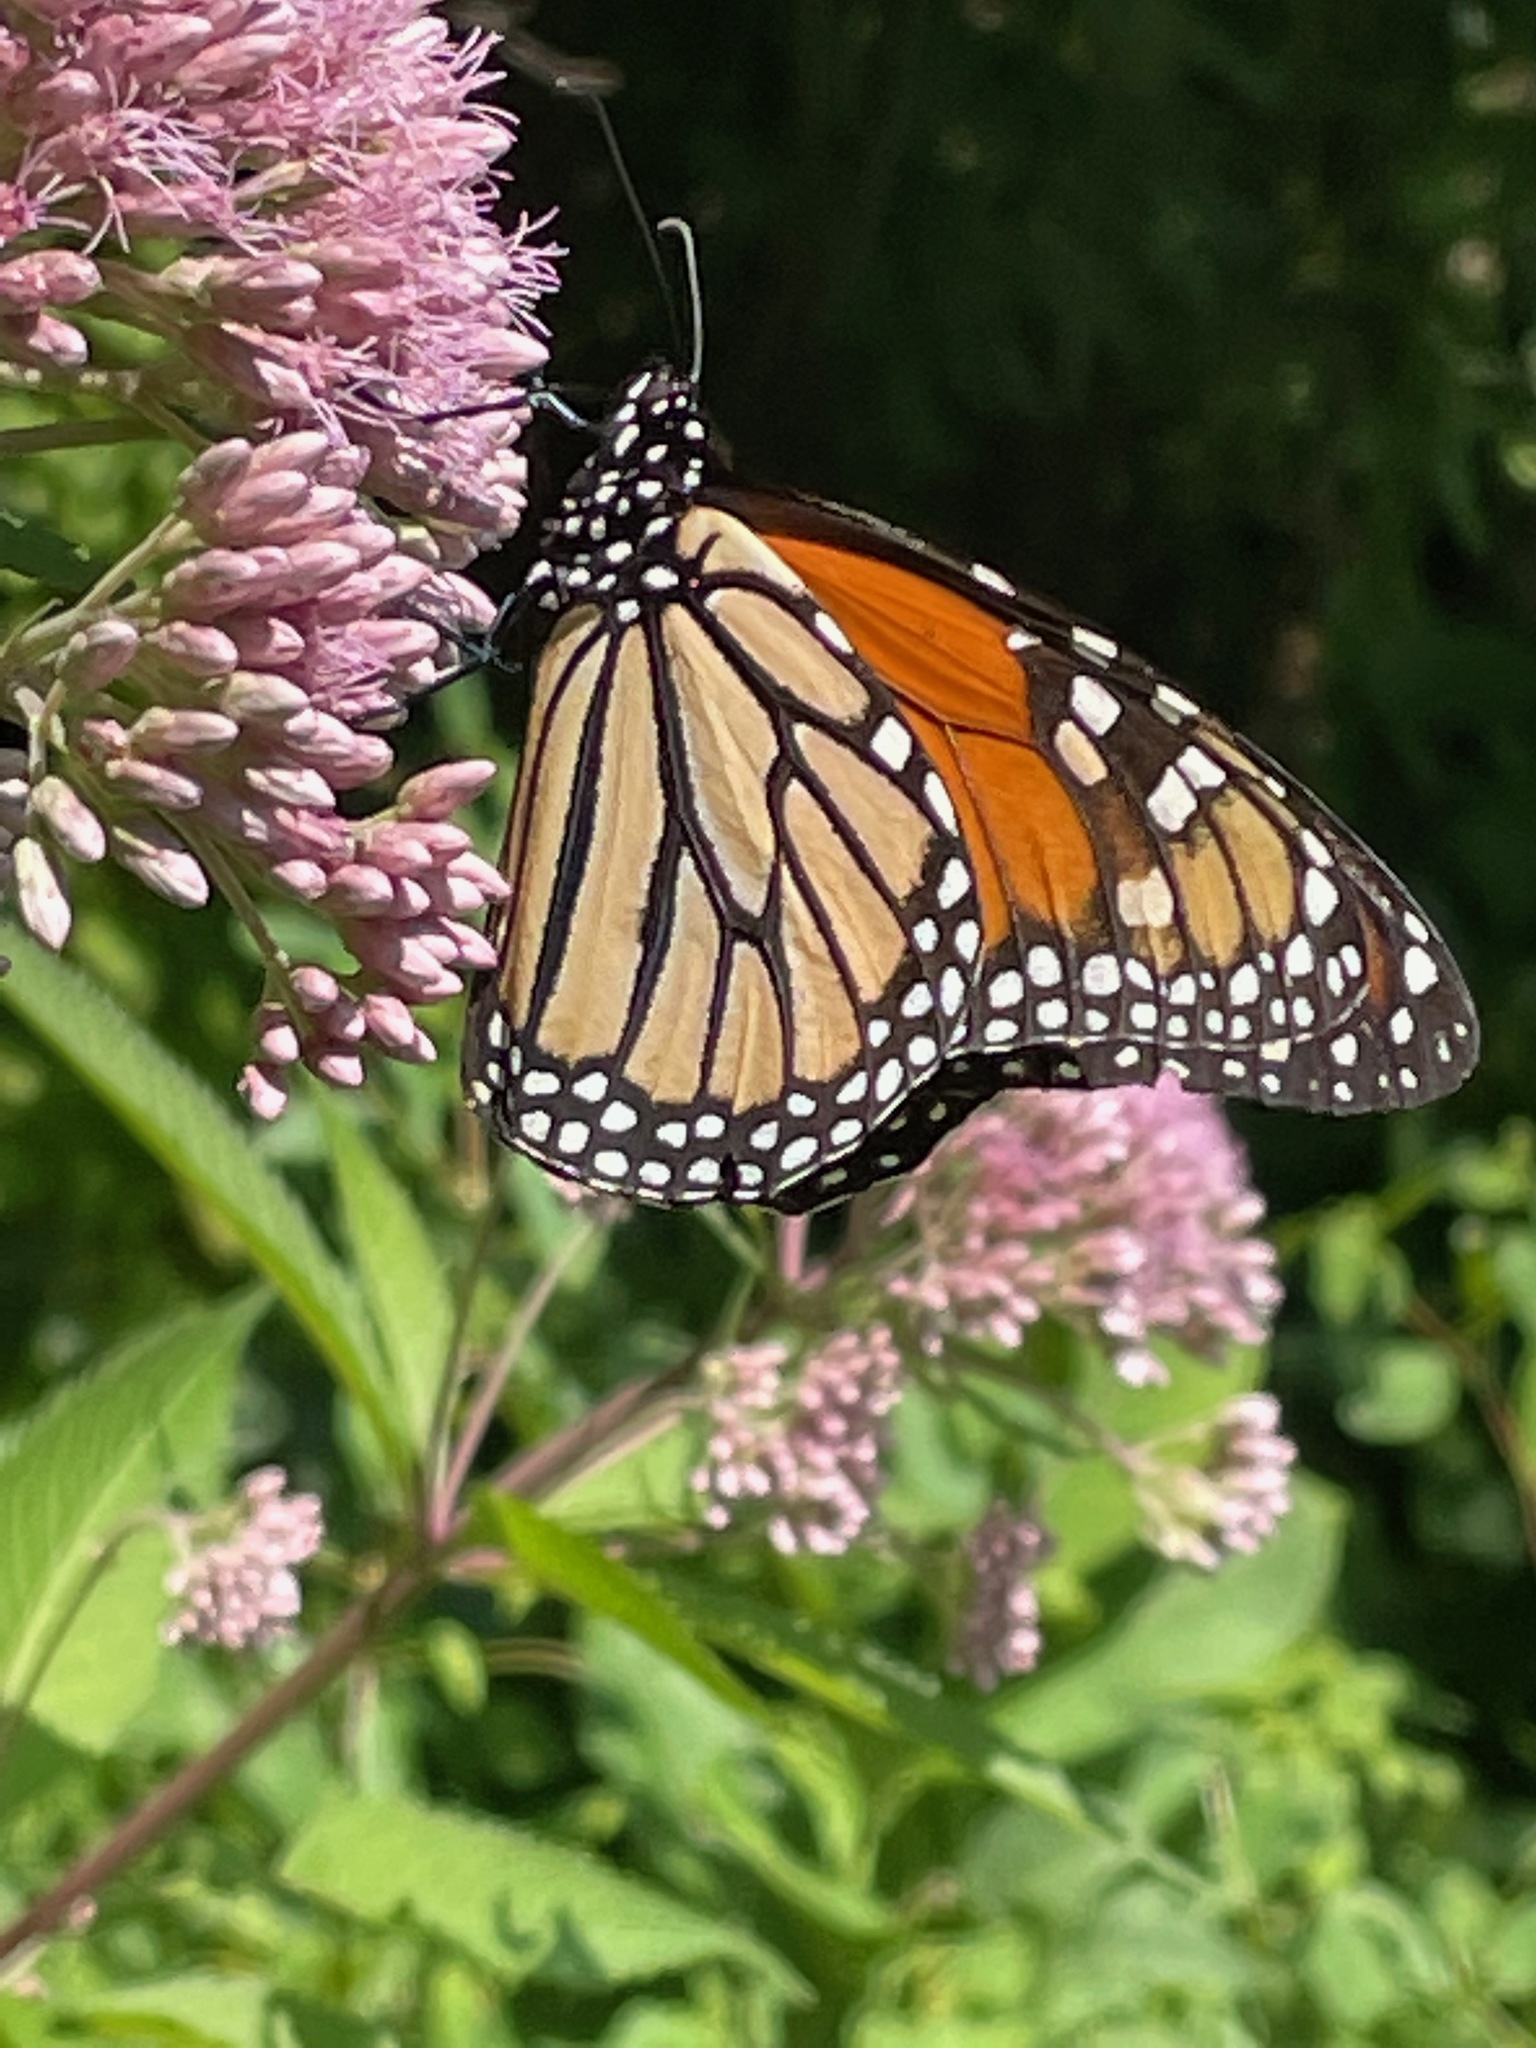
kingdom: Animalia
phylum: Arthropoda
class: Insecta
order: Lepidoptera
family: Nymphalidae
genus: Danaus
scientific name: Danaus plexippus
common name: Monarch
